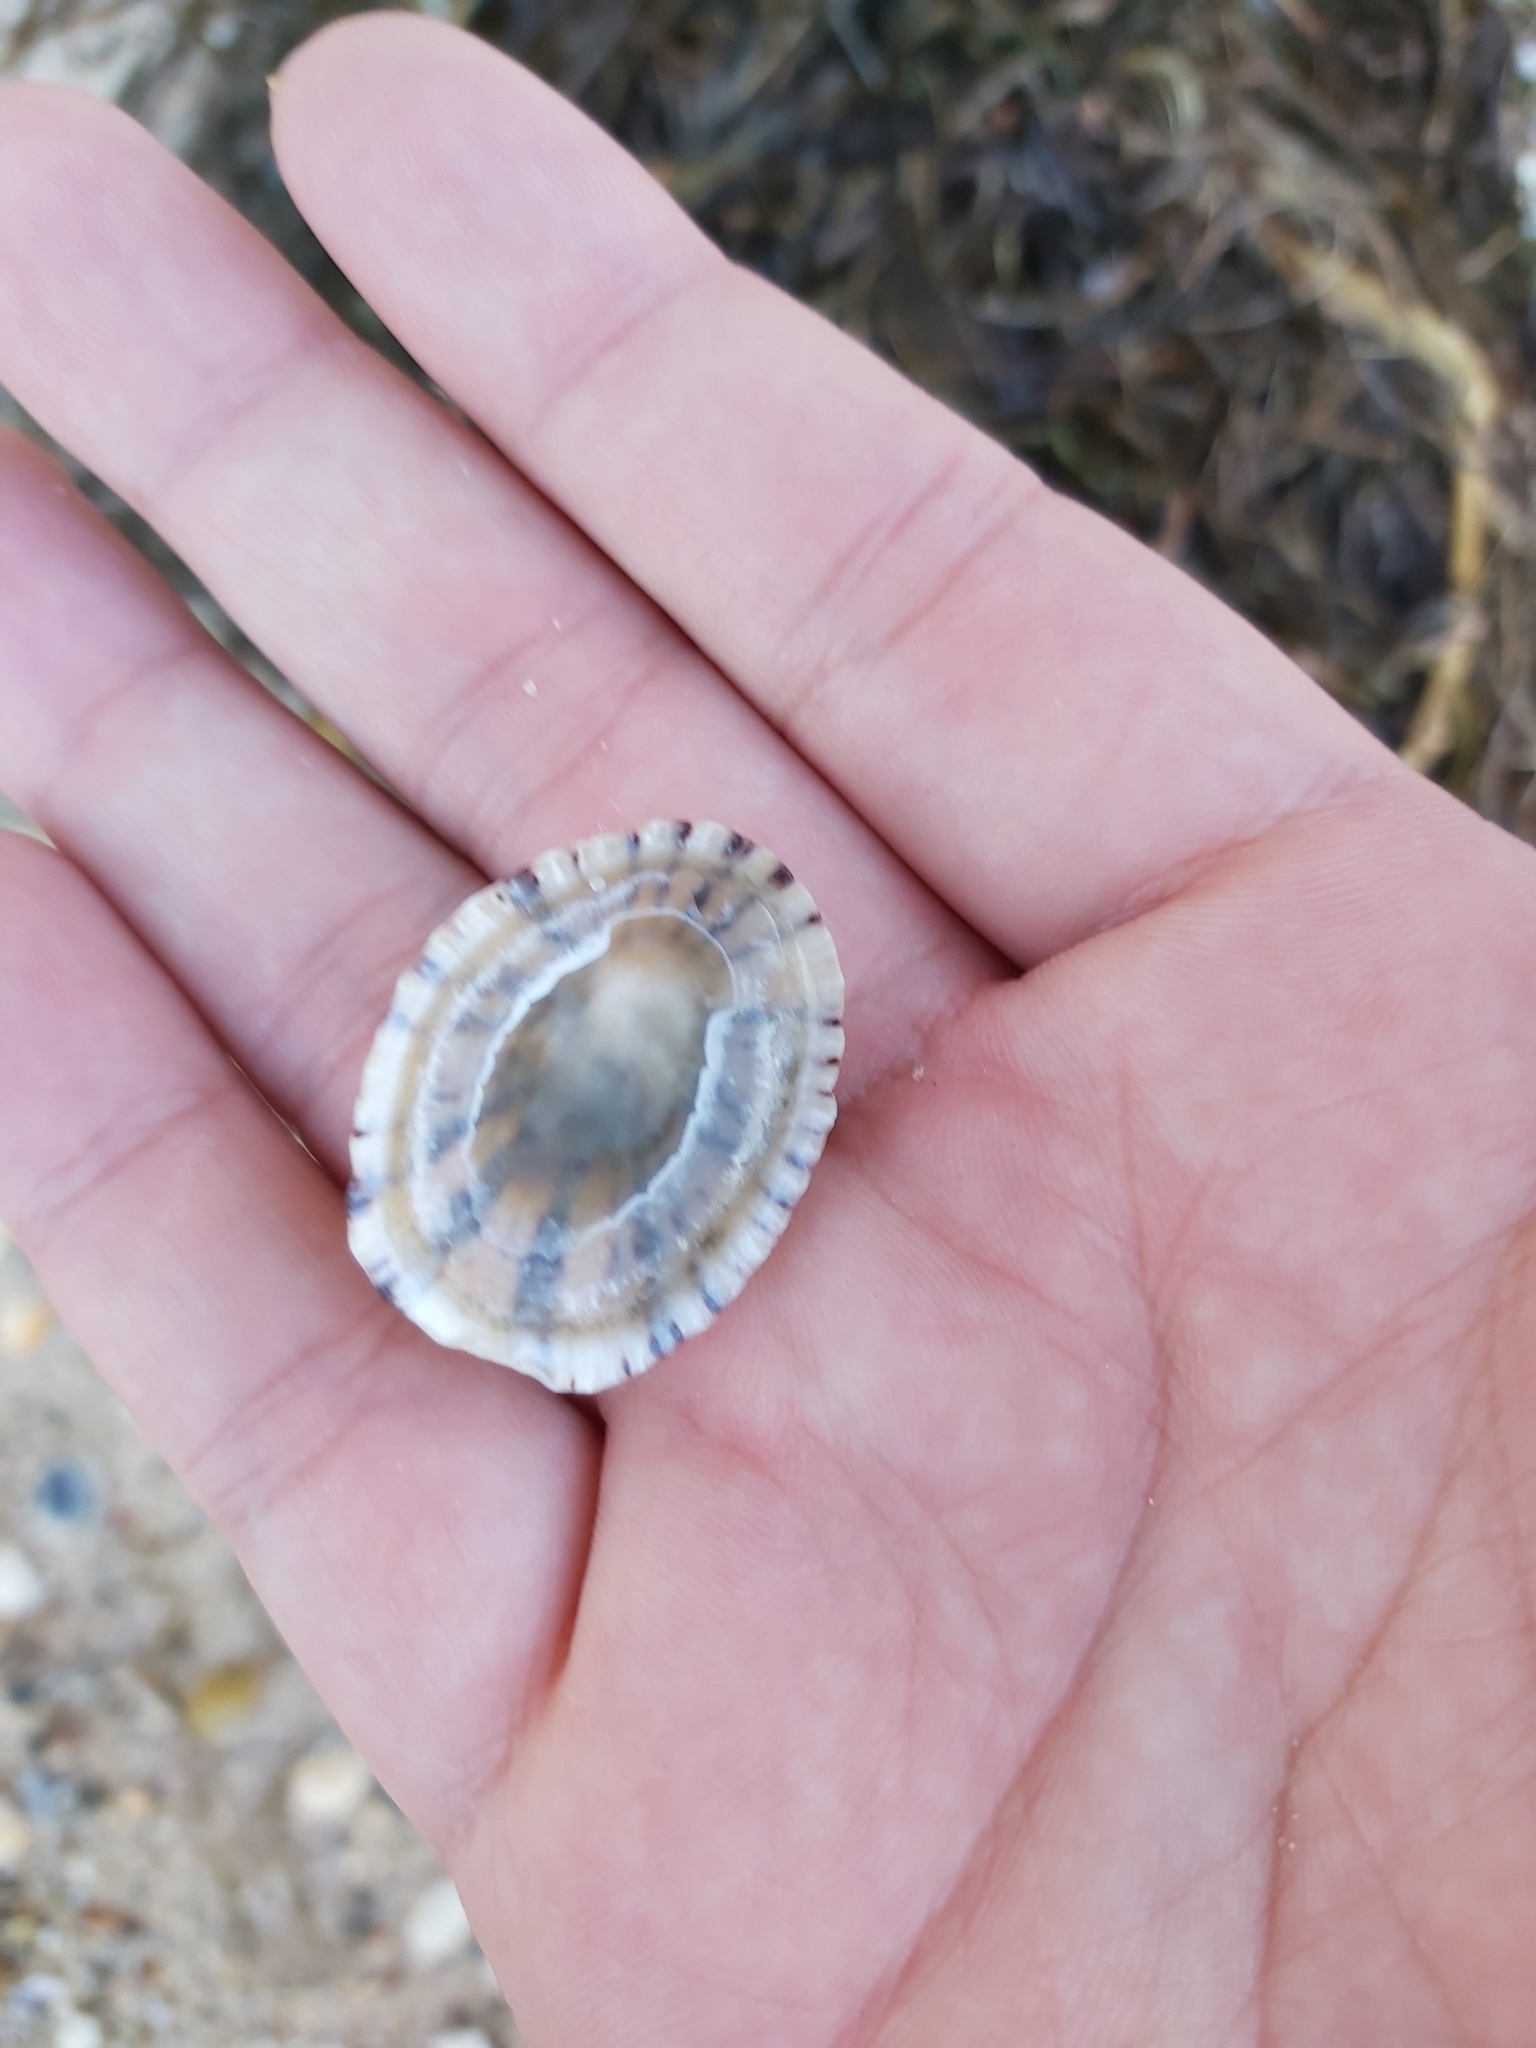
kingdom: Animalia
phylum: Mollusca
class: Gastropoda
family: Nacellidae
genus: Cellana
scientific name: Cellana tramoserica
